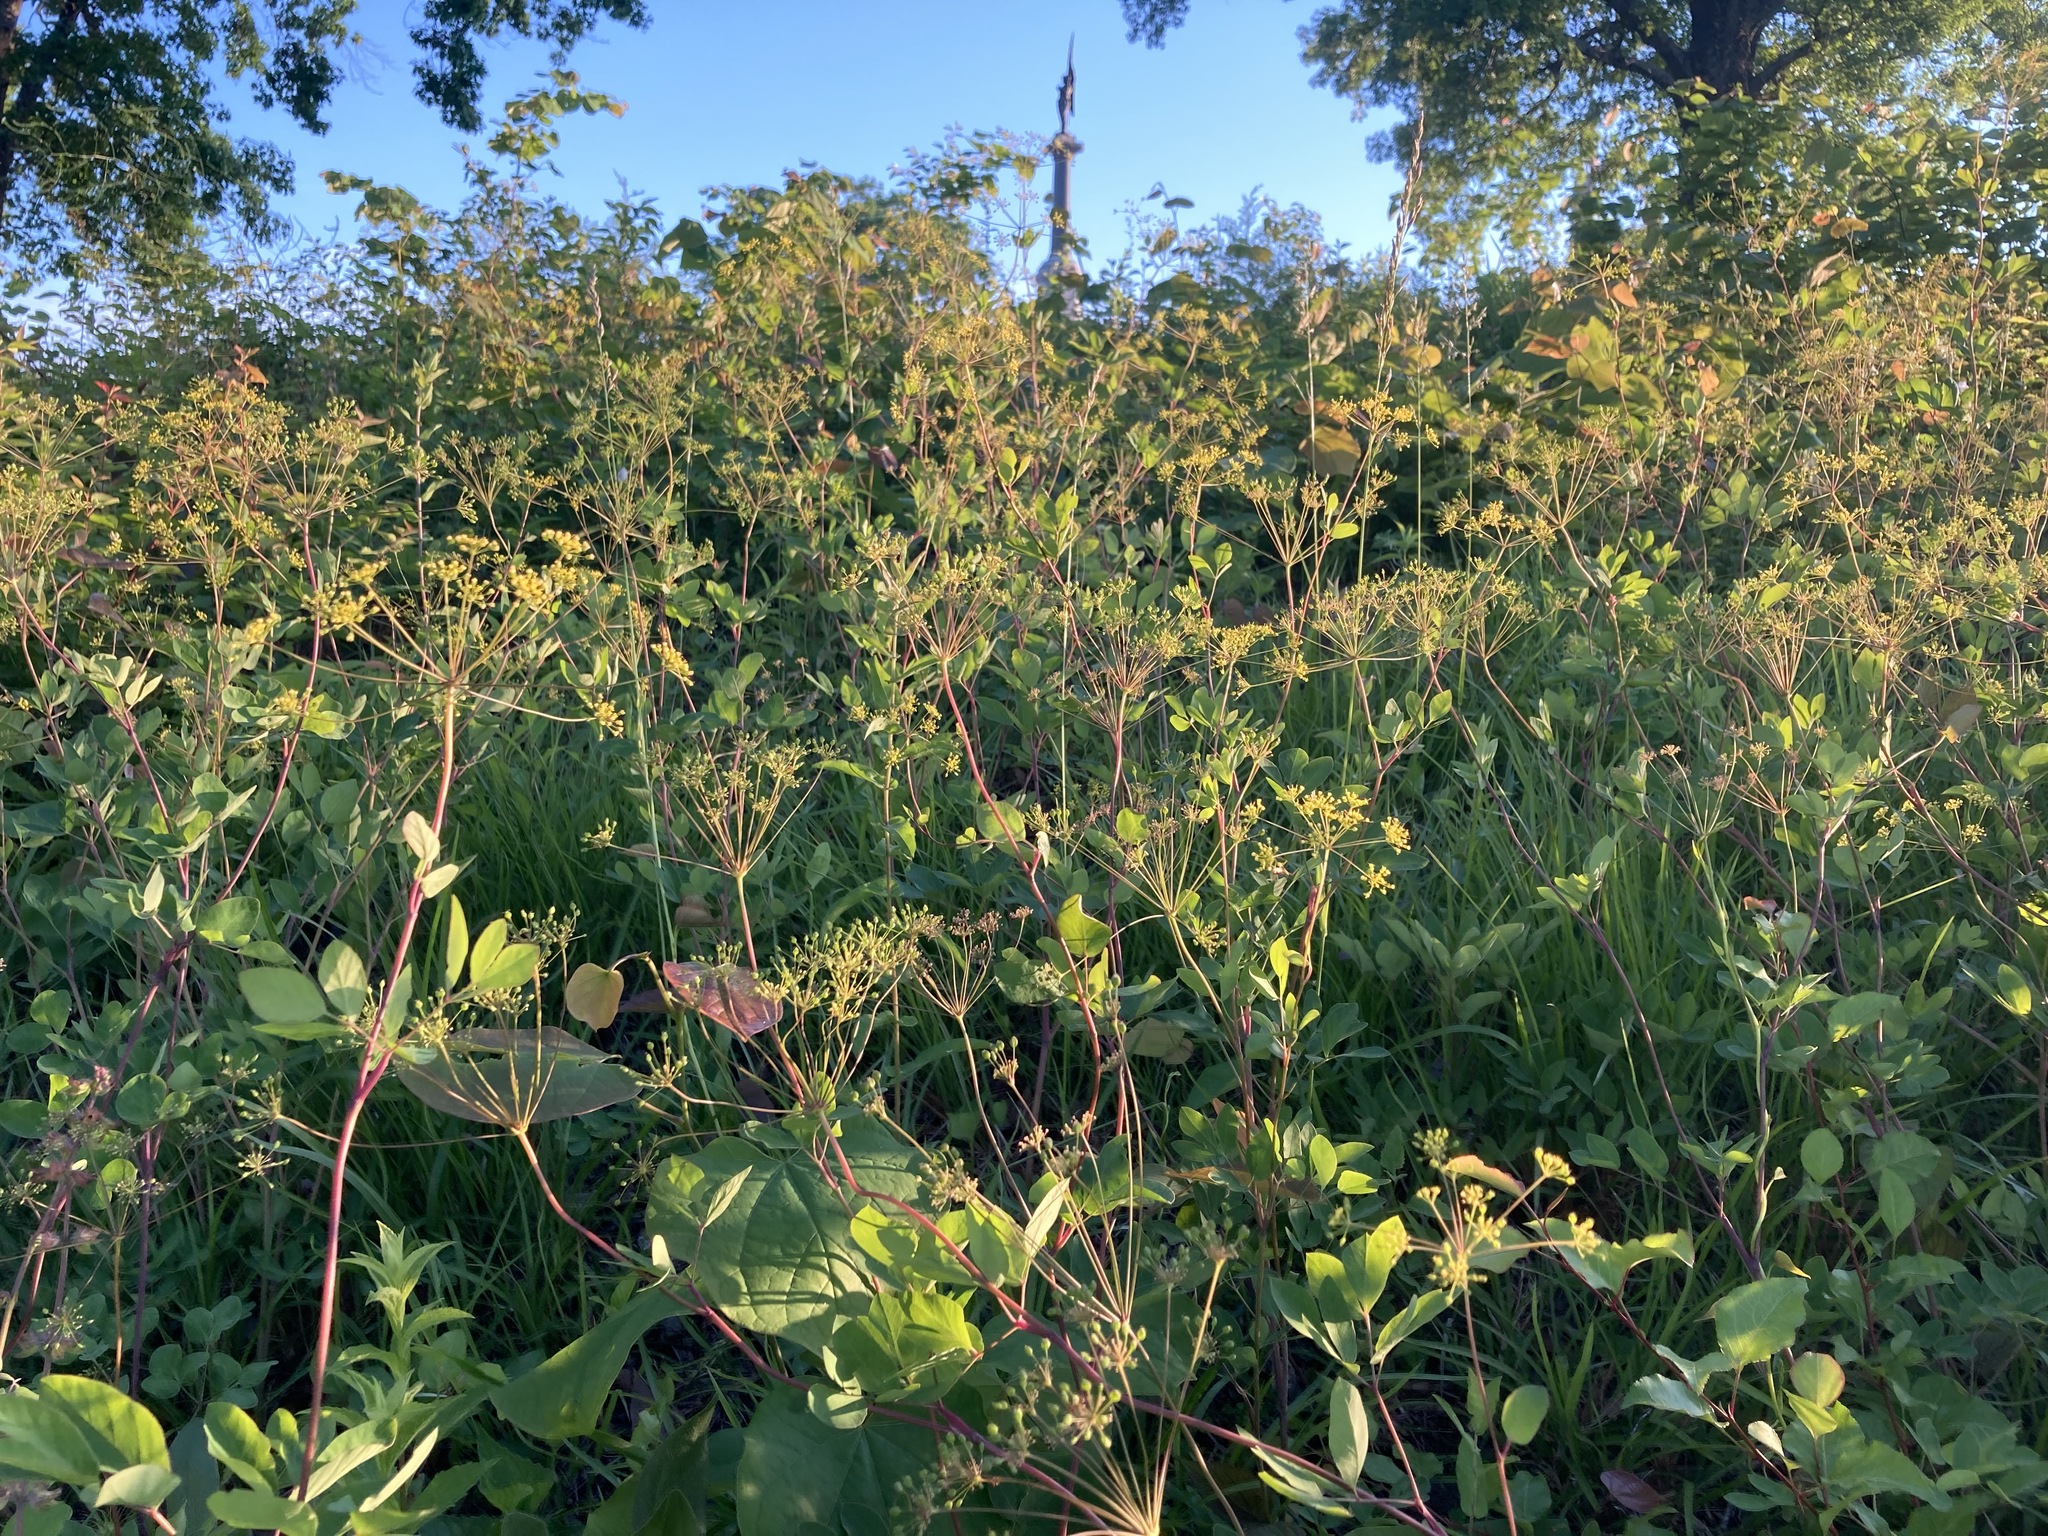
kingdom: Plantae
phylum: Tracheophyta
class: Magnoliopsida
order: Apiales
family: Apiaceae
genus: Taenidia
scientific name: Taenidia integerrima
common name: Golden alexander
